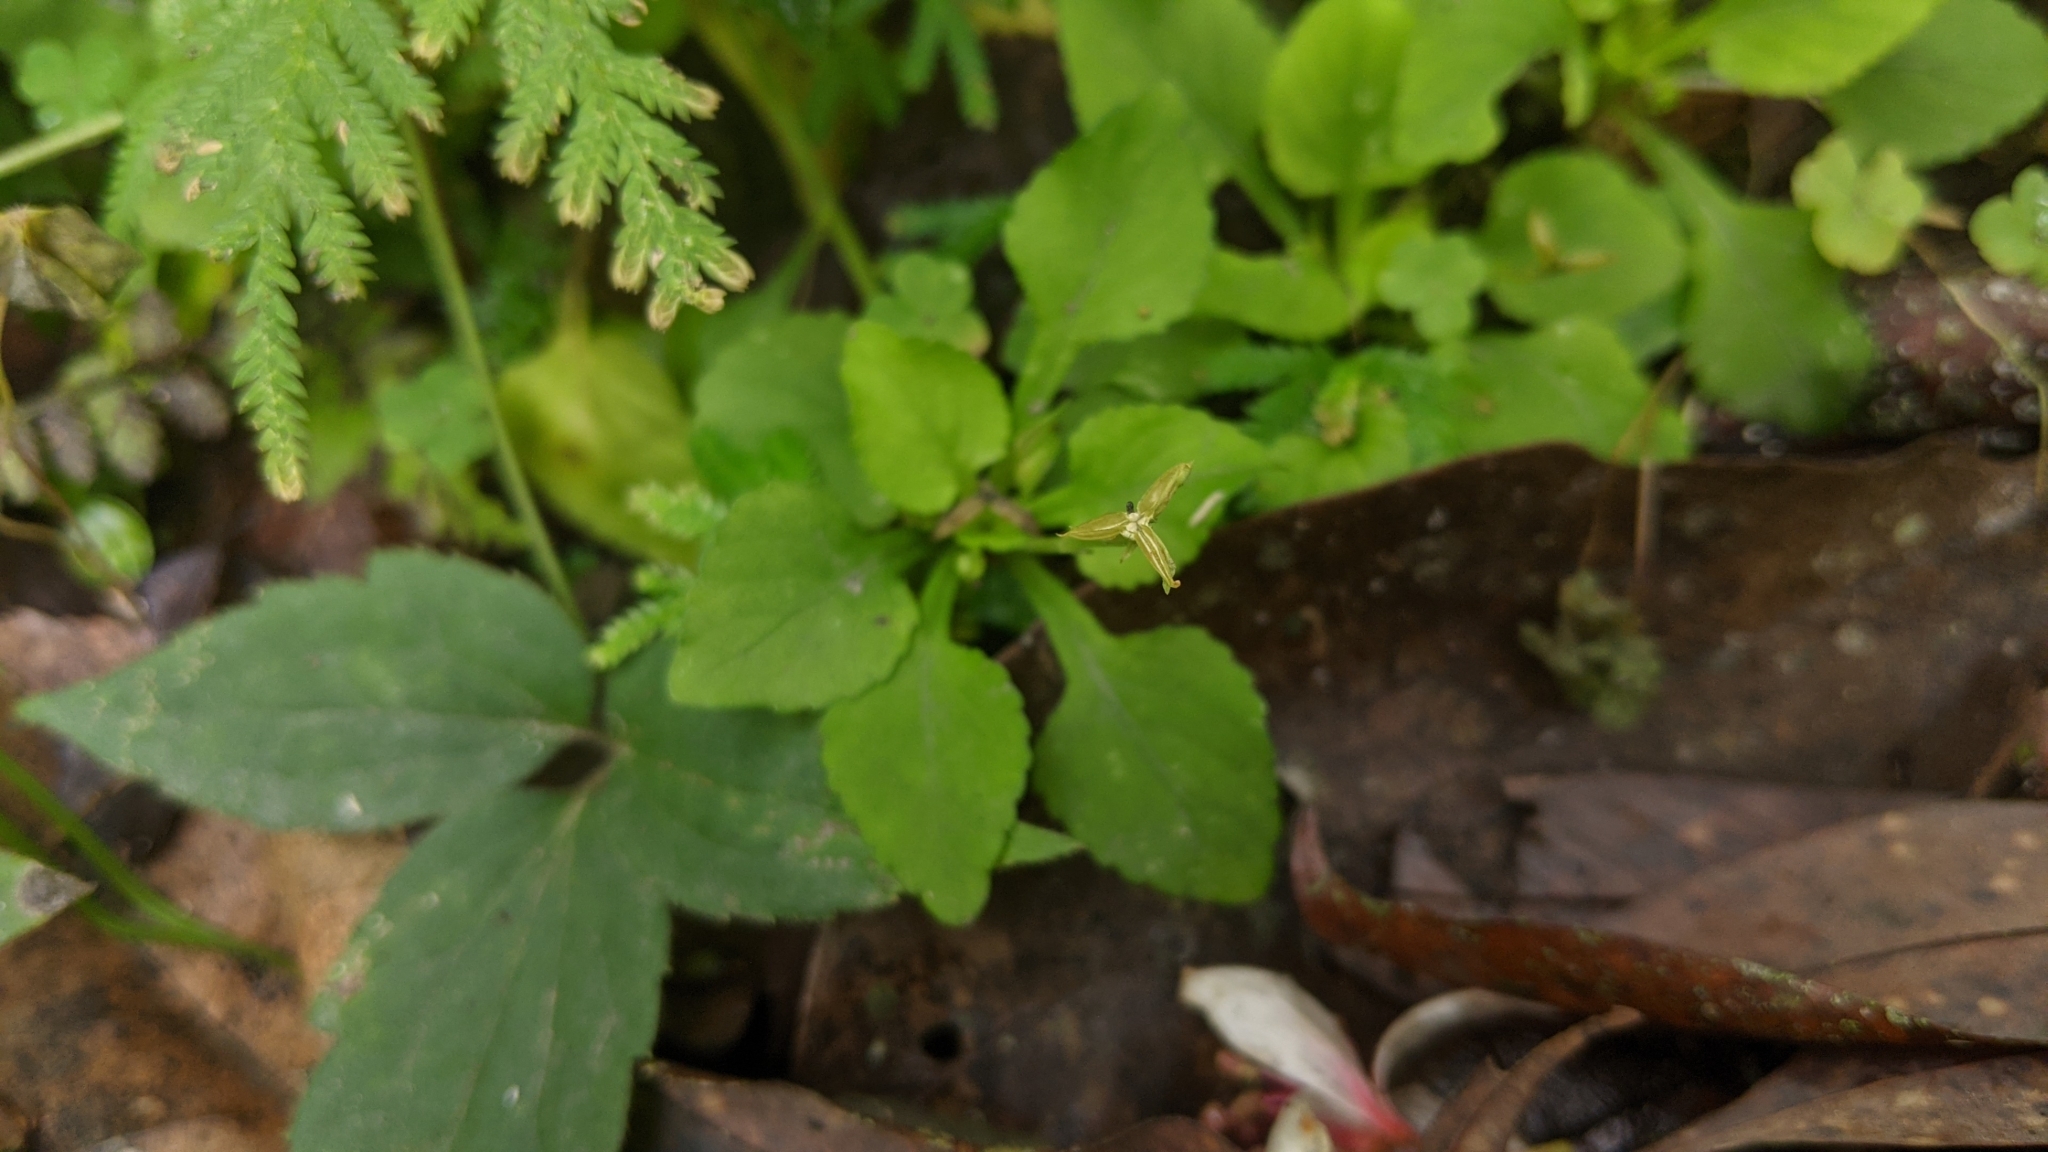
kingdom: Plantae
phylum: Tracheophyta
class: Magnoliopsida
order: Malpighiales
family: Violaceae
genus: Viola
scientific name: Viola diffusa
